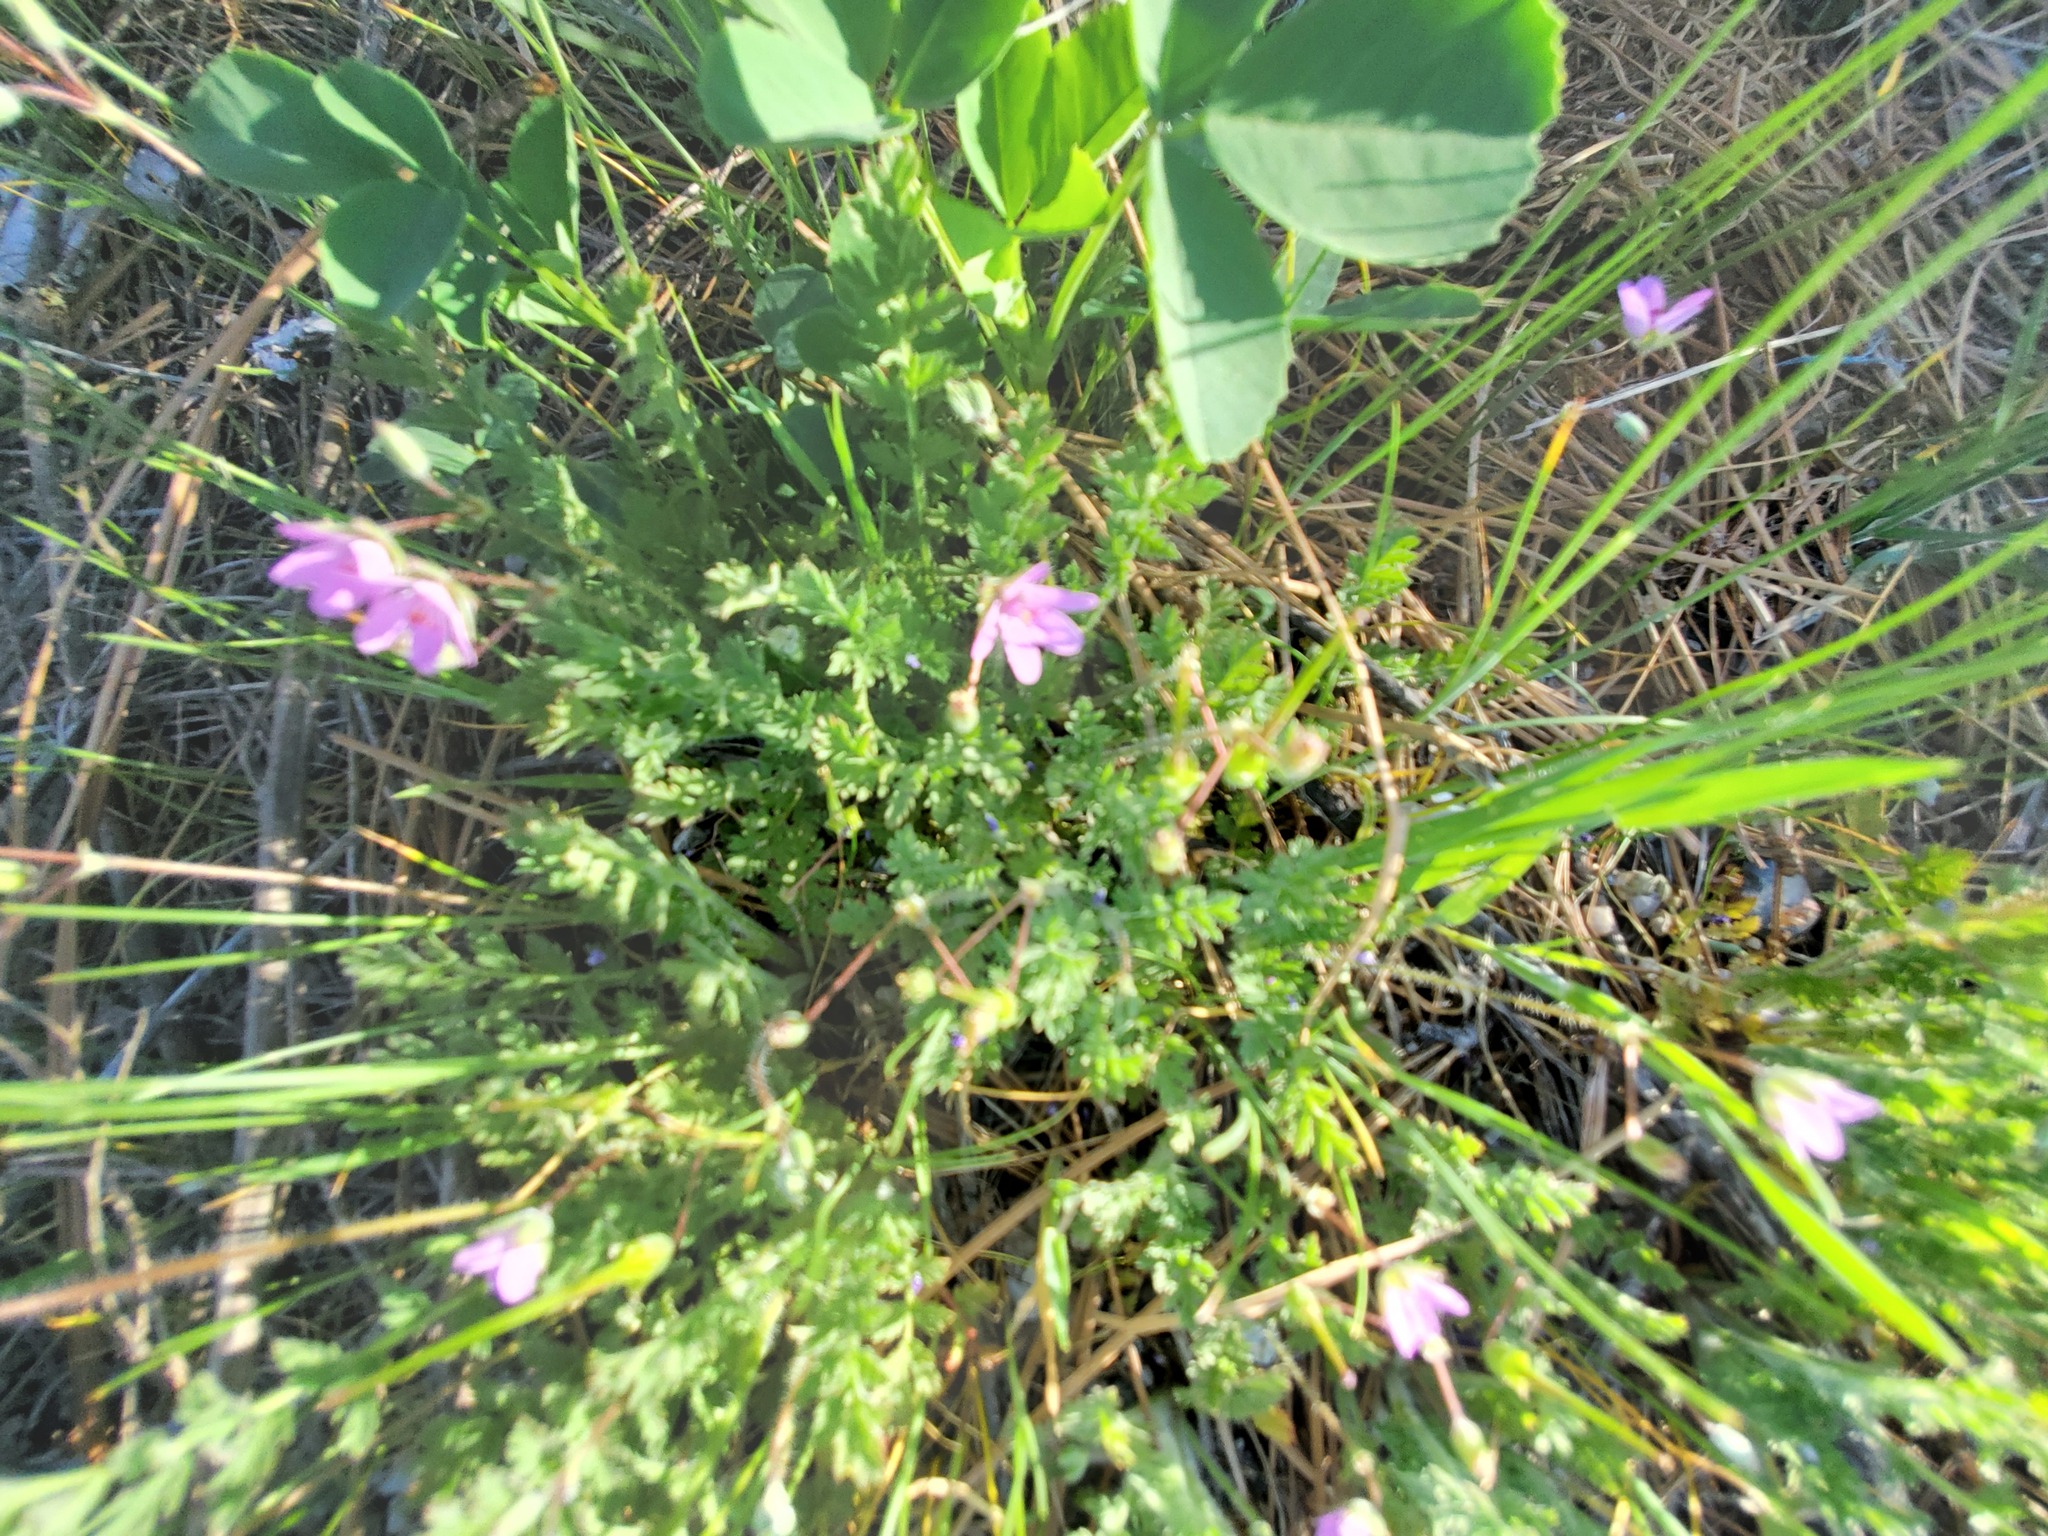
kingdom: Plantae
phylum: Tracheophyta
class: Magnoliopsida
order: Geraniales
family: Geraniaceae
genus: Erodium
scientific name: Erodium cicutarium
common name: Common stork's-bill
